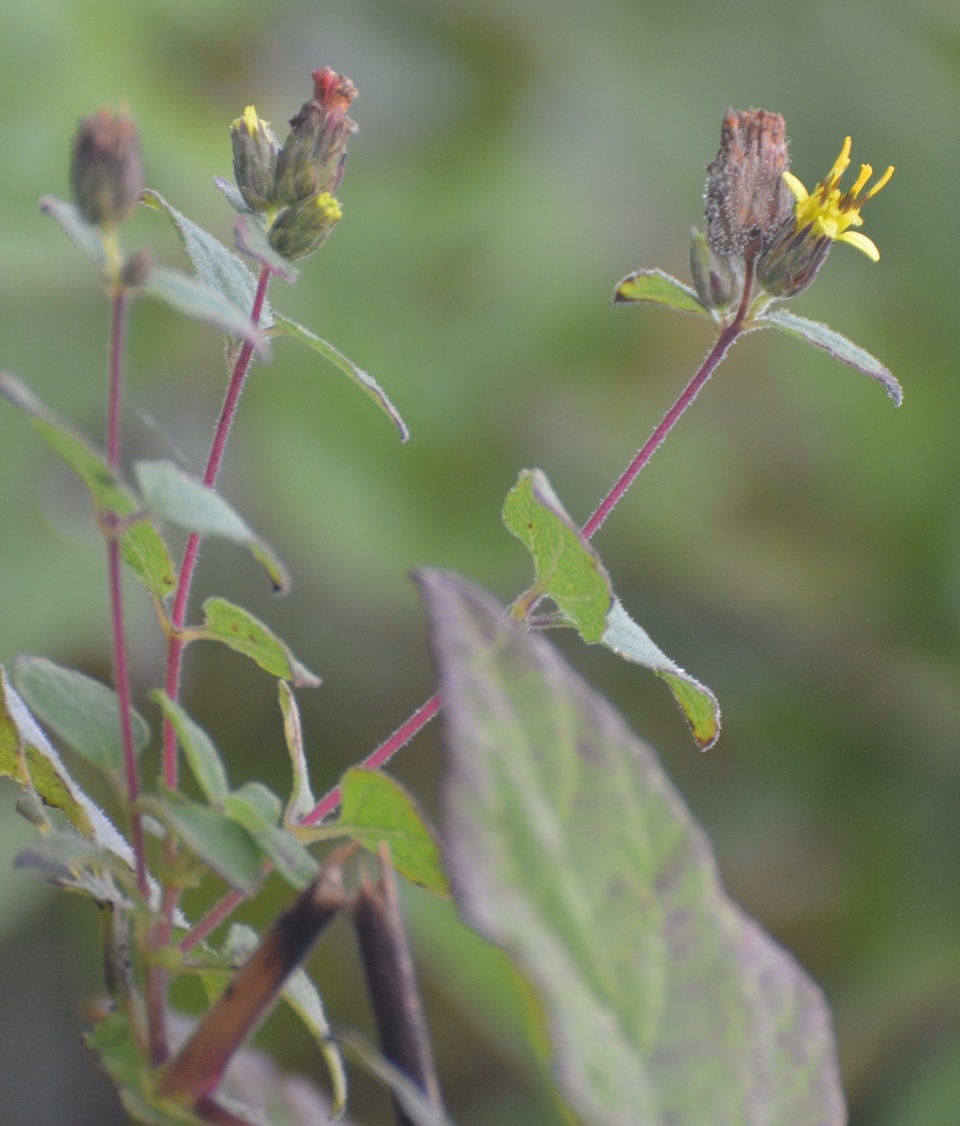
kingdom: Plantae
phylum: Tracheophyta
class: Magnoliopsida
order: Asterales
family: Asteraceae
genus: Calea
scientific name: Calea urticifolia
